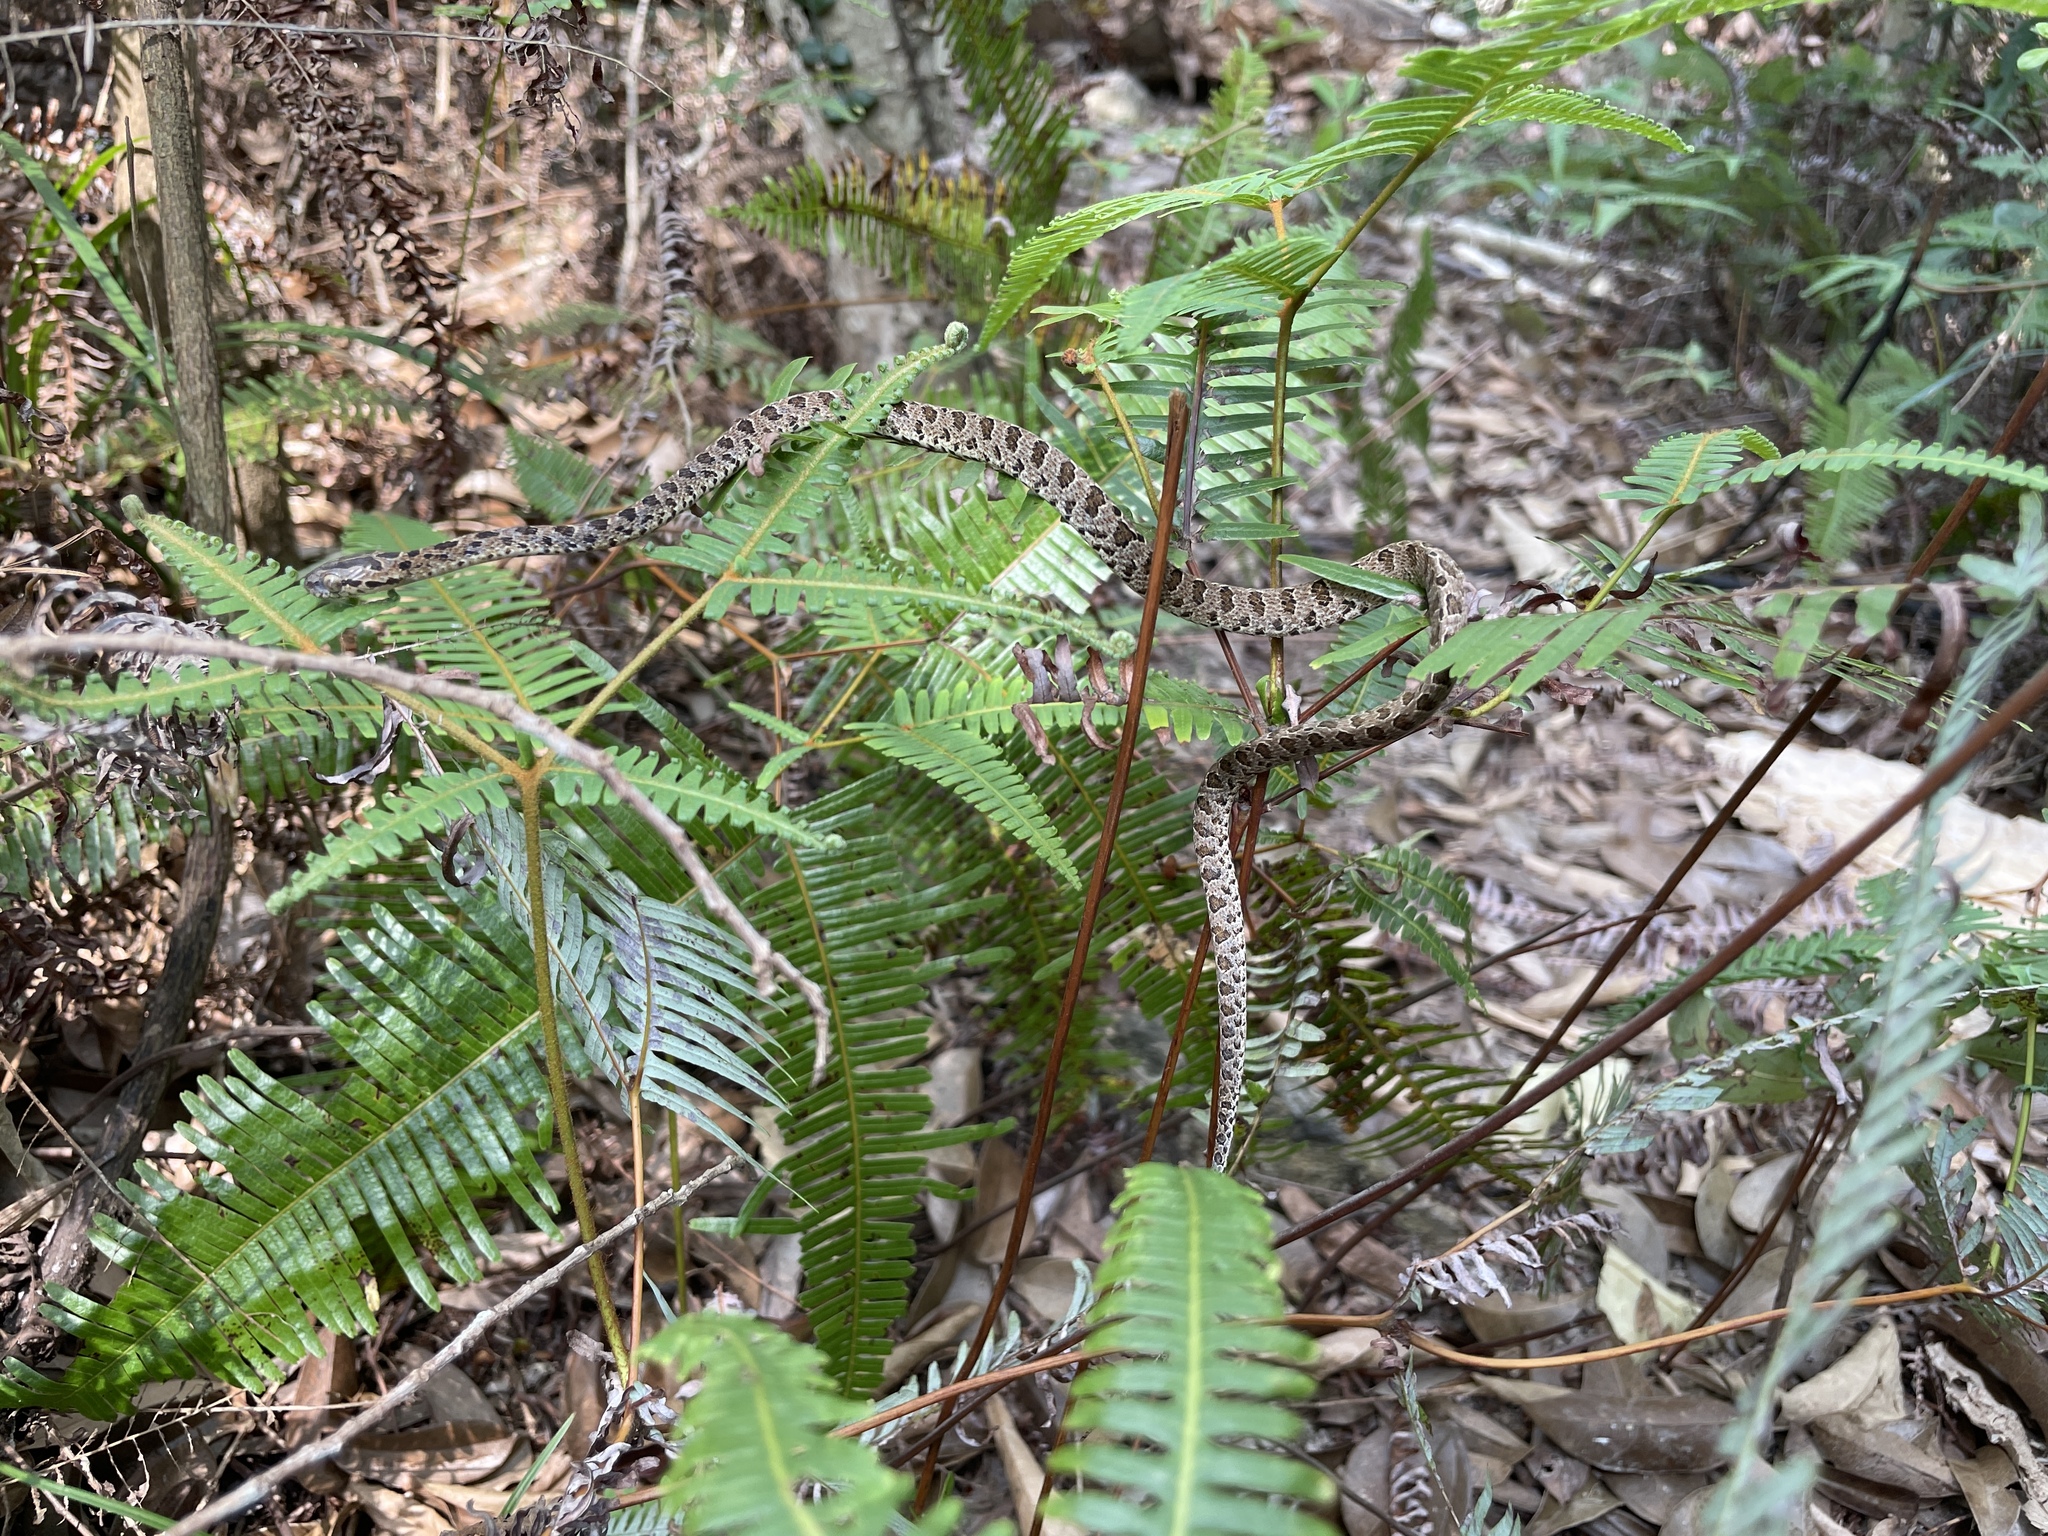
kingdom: Animalia
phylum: Chordata
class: Squamata
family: Colubridae
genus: Boiga
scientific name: Boiga multomaculata
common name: Many-spotted cat snake
